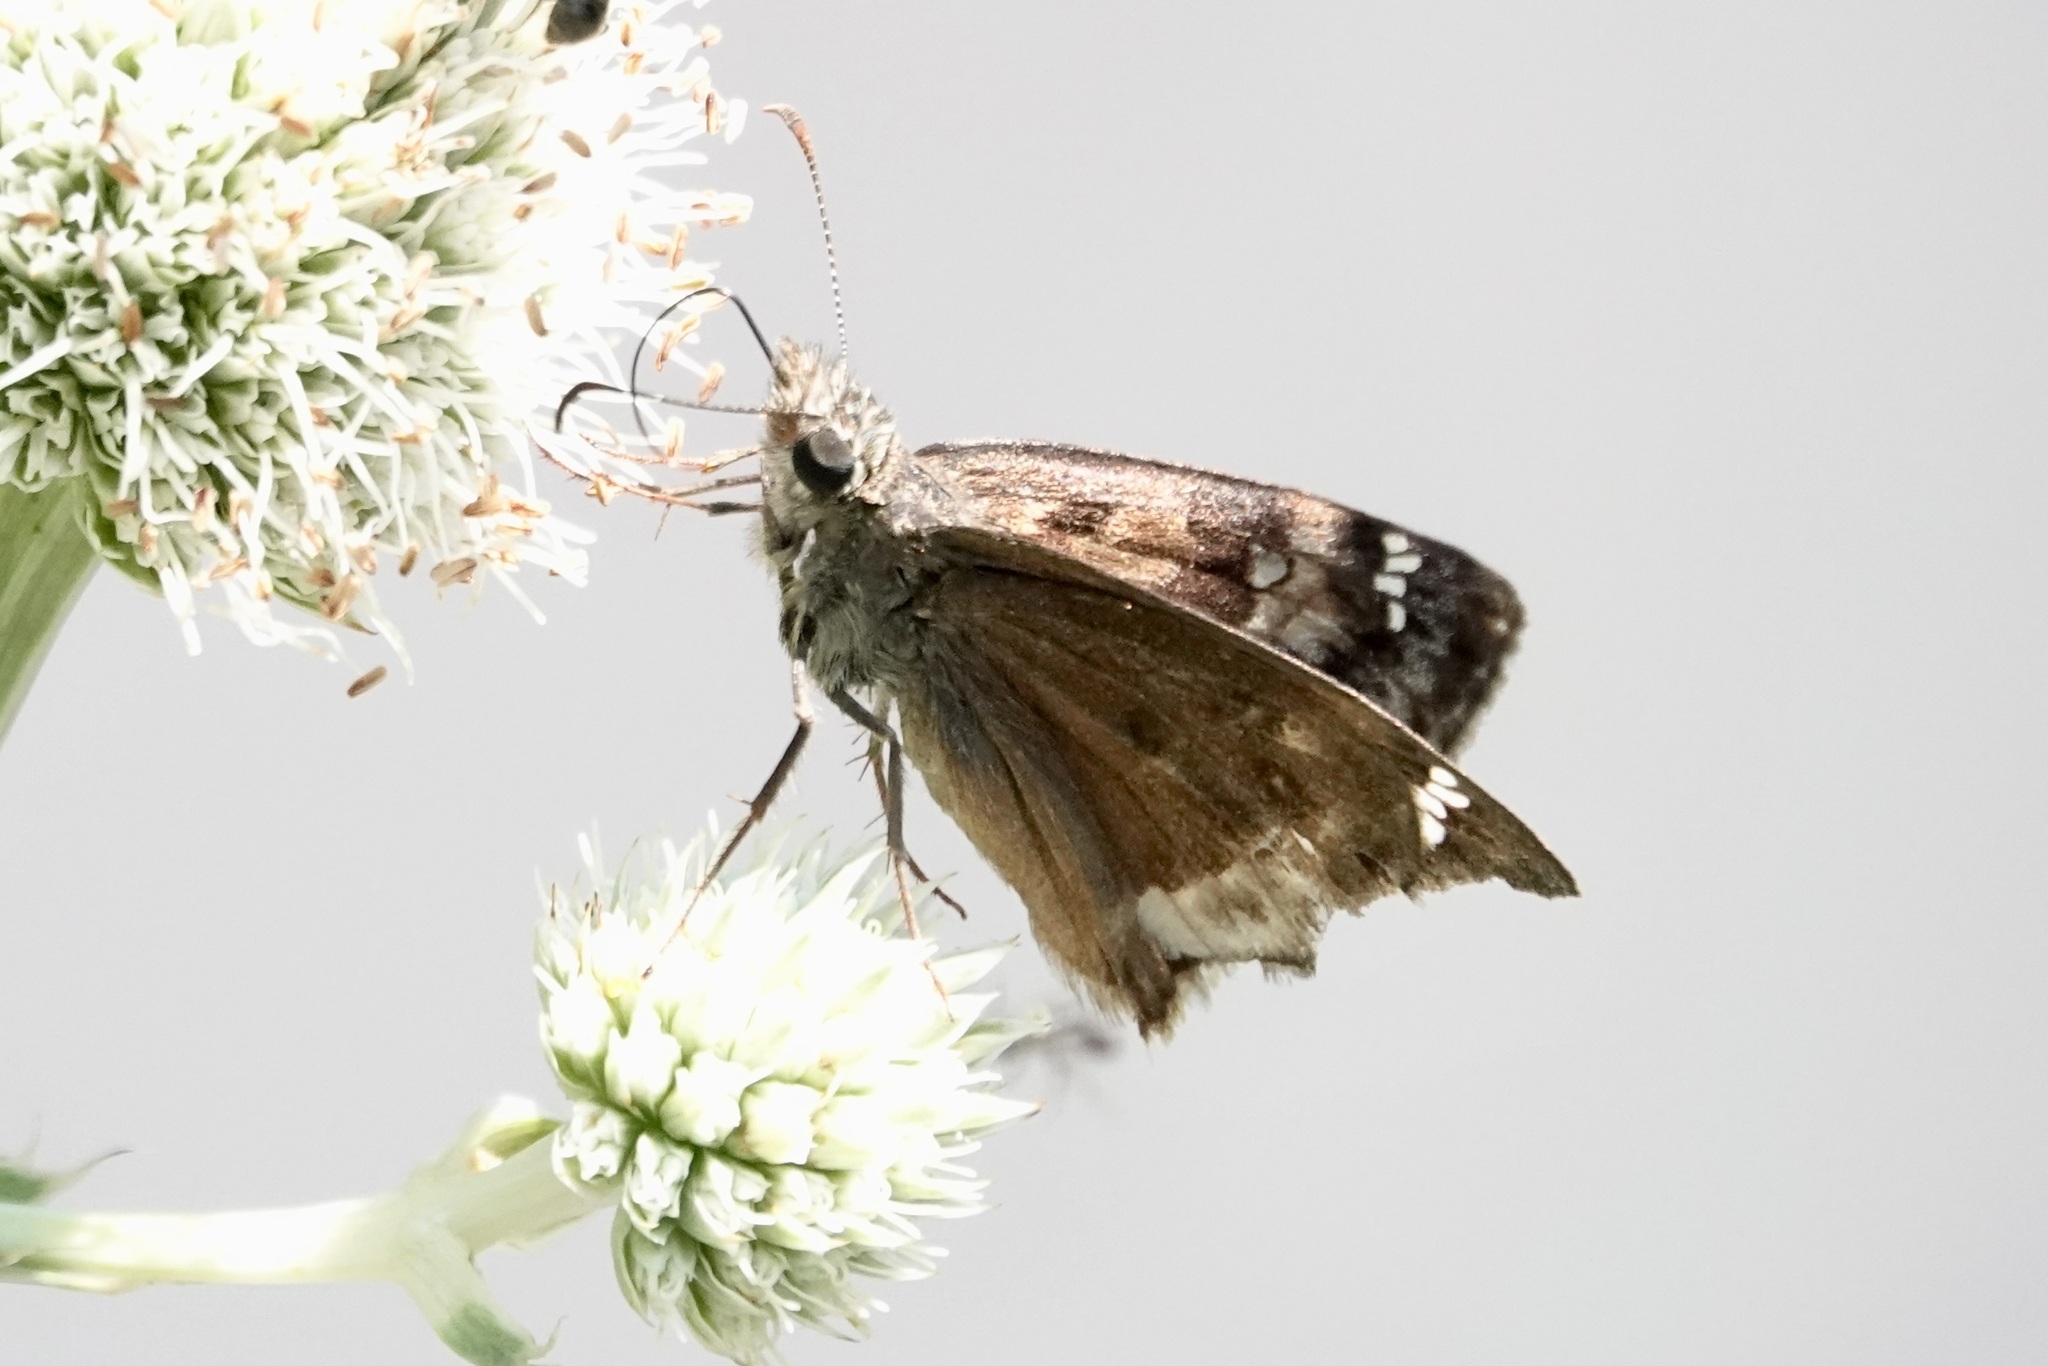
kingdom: Animalia
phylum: Arthropoda
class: Insecta
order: Lepidoptera
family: Hesperiidae
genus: Erynnis
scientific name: Erynnis horatius
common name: Horace's duskywing
